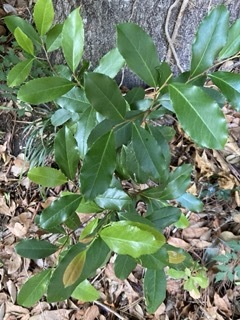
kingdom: Plantae
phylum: Tracheophyta
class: Magnoliopsida
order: Rosales
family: Rosaceae
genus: Prunus
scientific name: Prunus caroliniana
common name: Carolina laurel cherry
